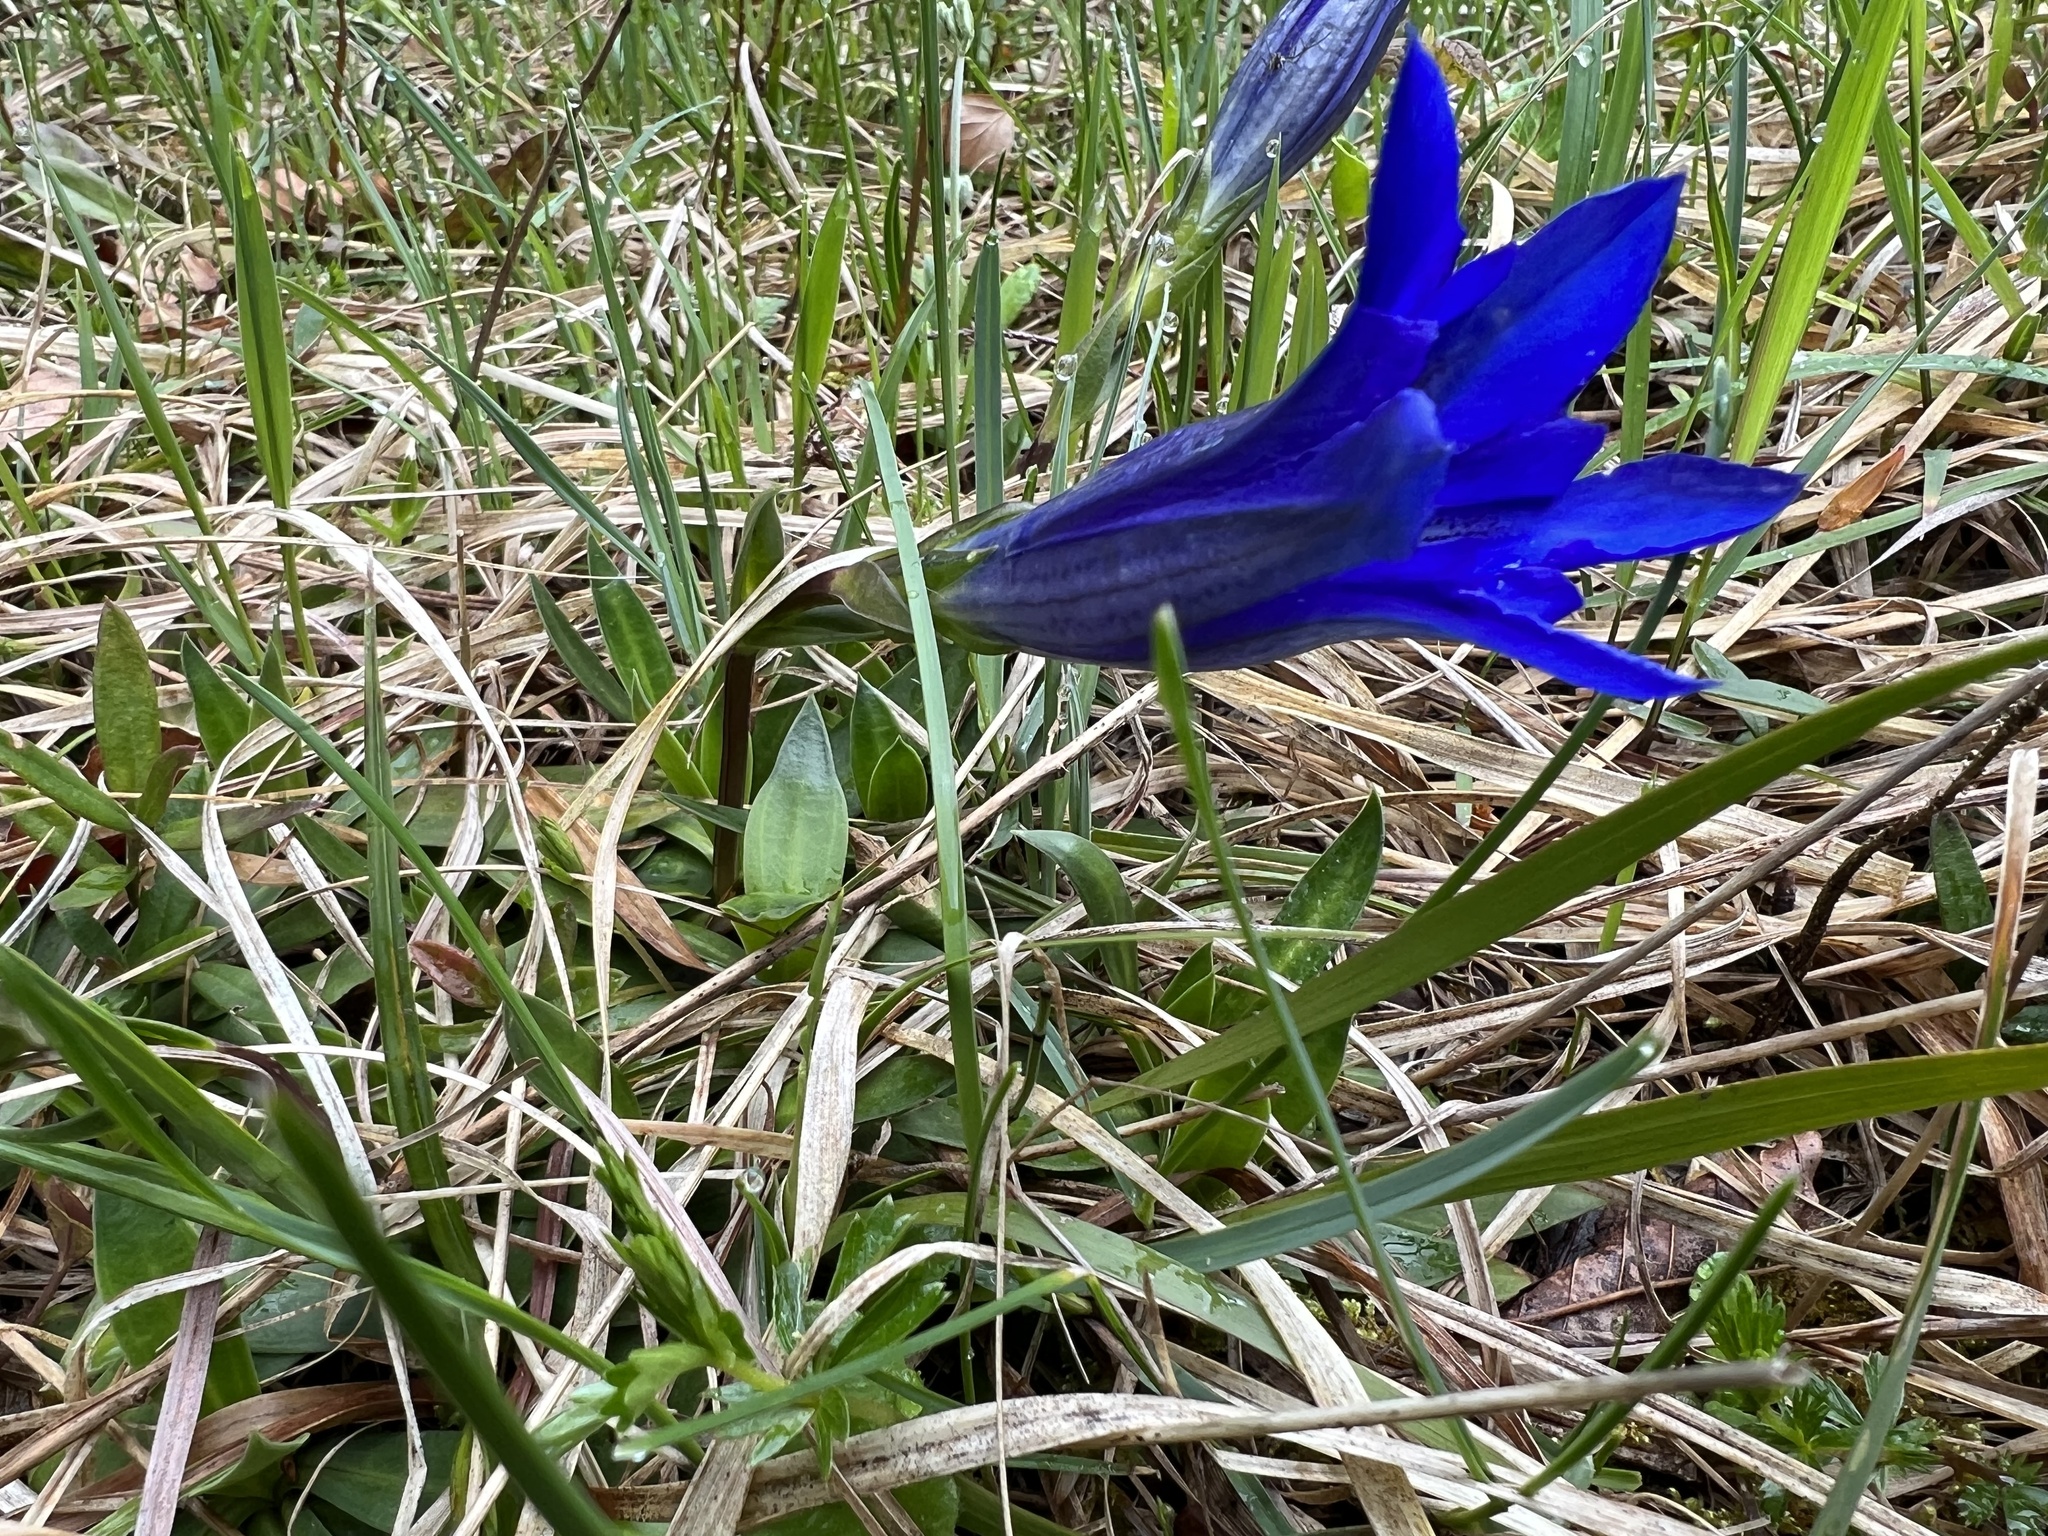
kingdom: Plantae
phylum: Tracheophyta
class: Magnoliopsida
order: Gentianales
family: Gentianaceae
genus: Gentiana
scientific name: Gentiana clusii
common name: Trumpet gentian
